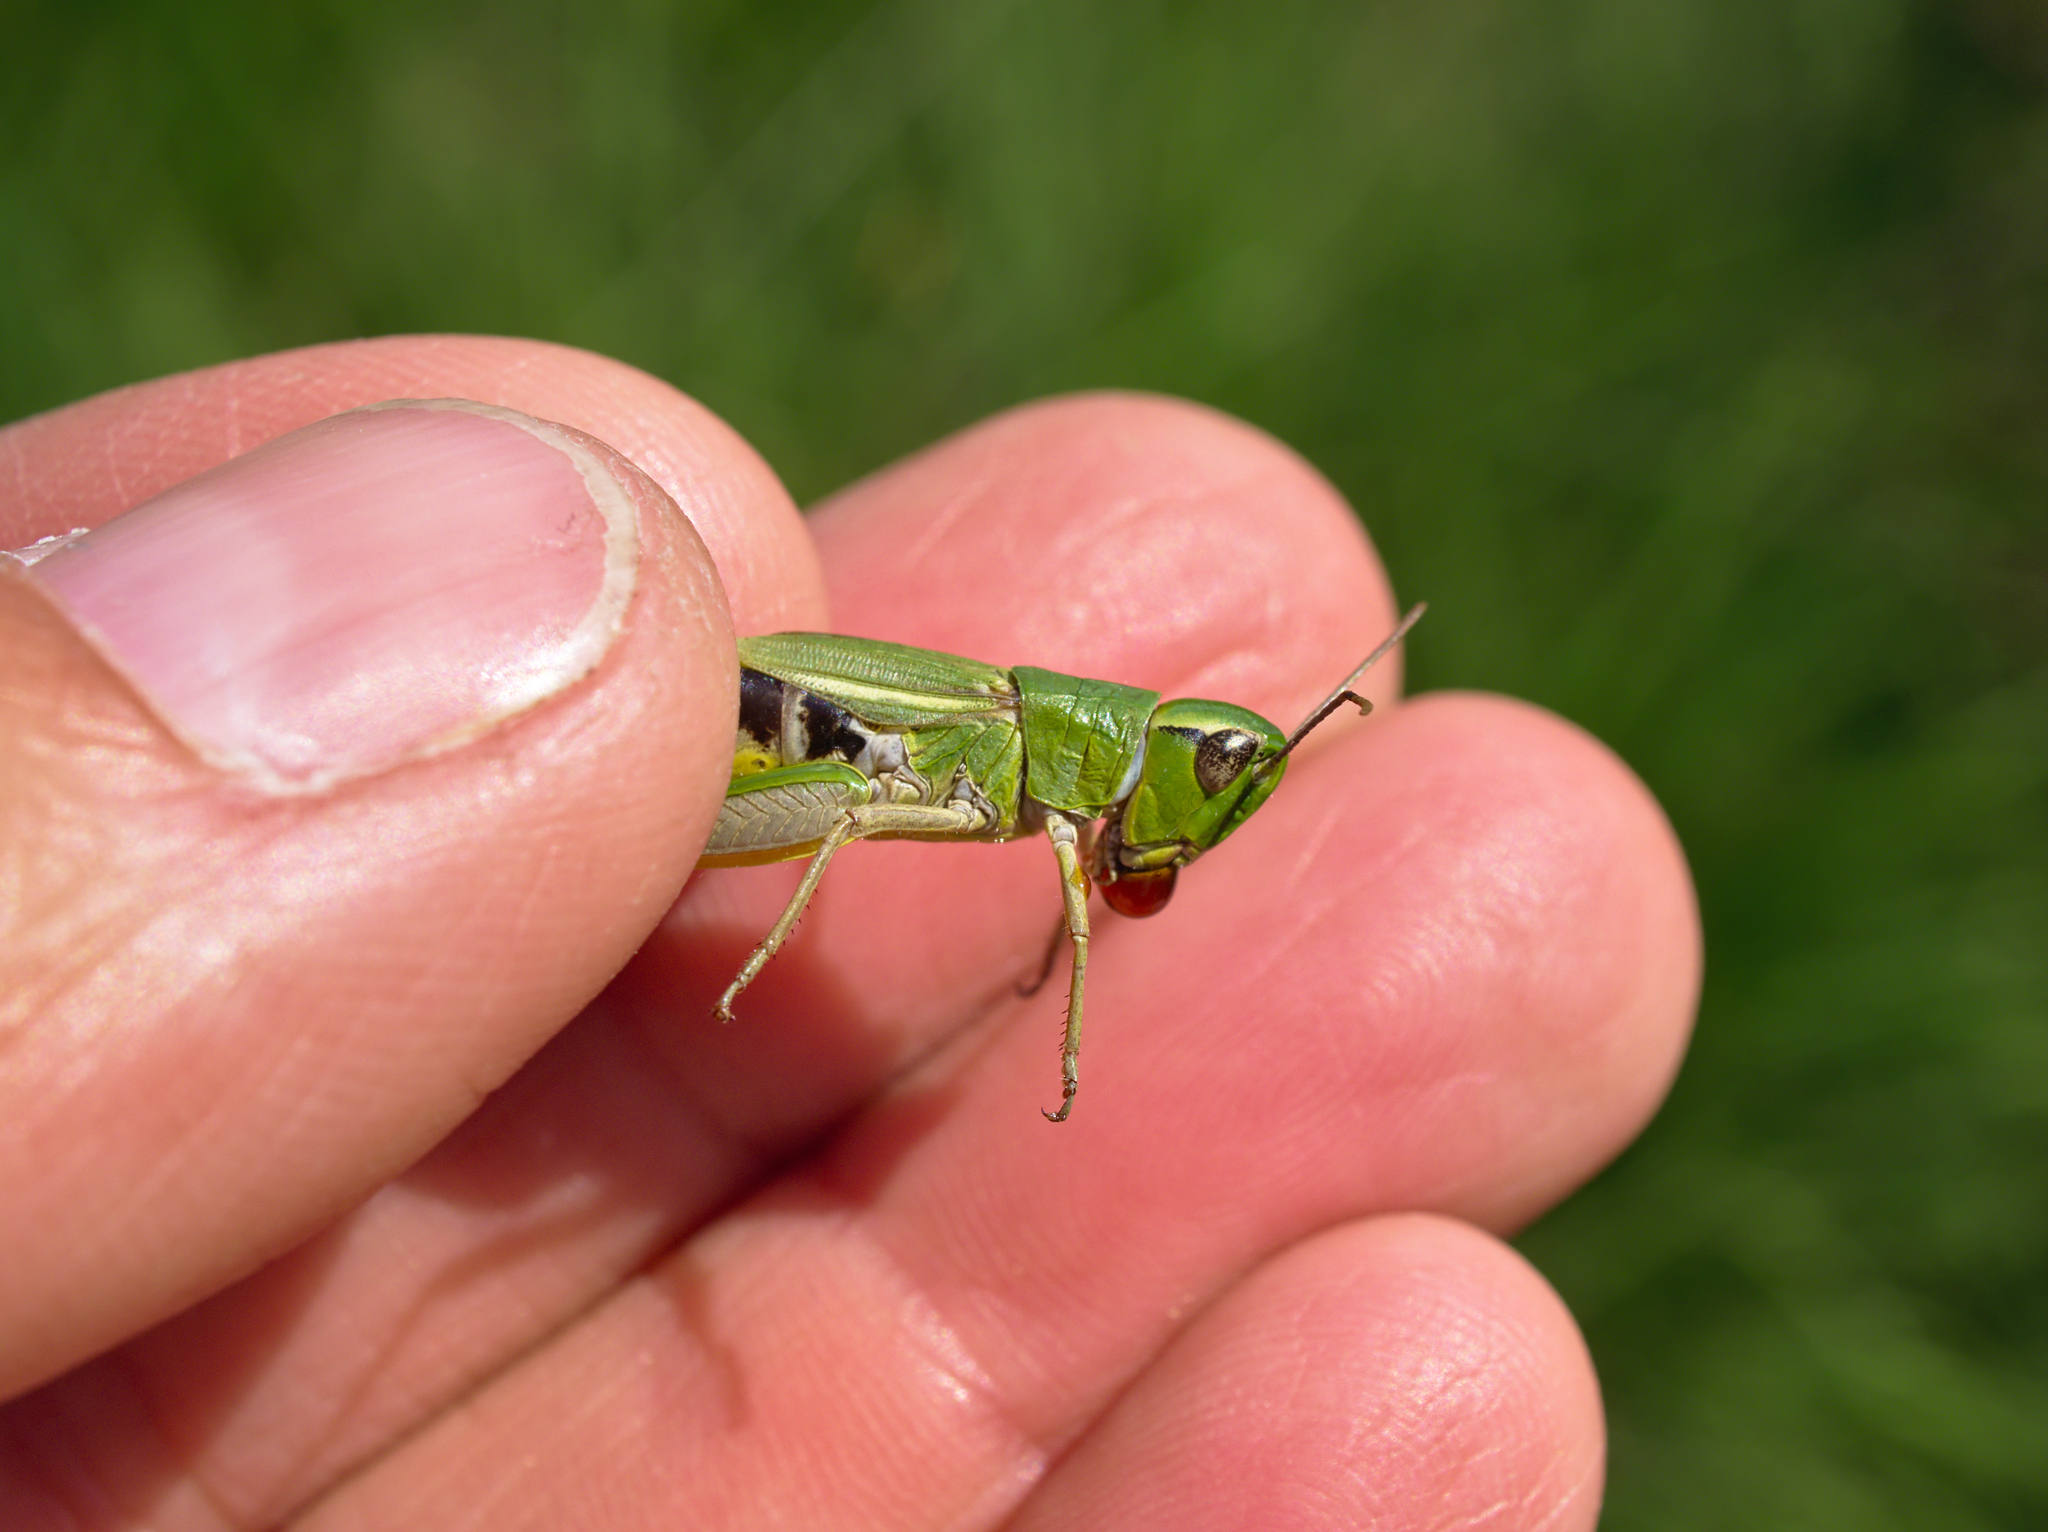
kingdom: Animalia
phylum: Arthropoda
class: Insecta
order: Orthoptera
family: Acrididae
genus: Pseudochorthippus
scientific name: Pseudochorthippus parallelus
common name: Meadow grasshopper
